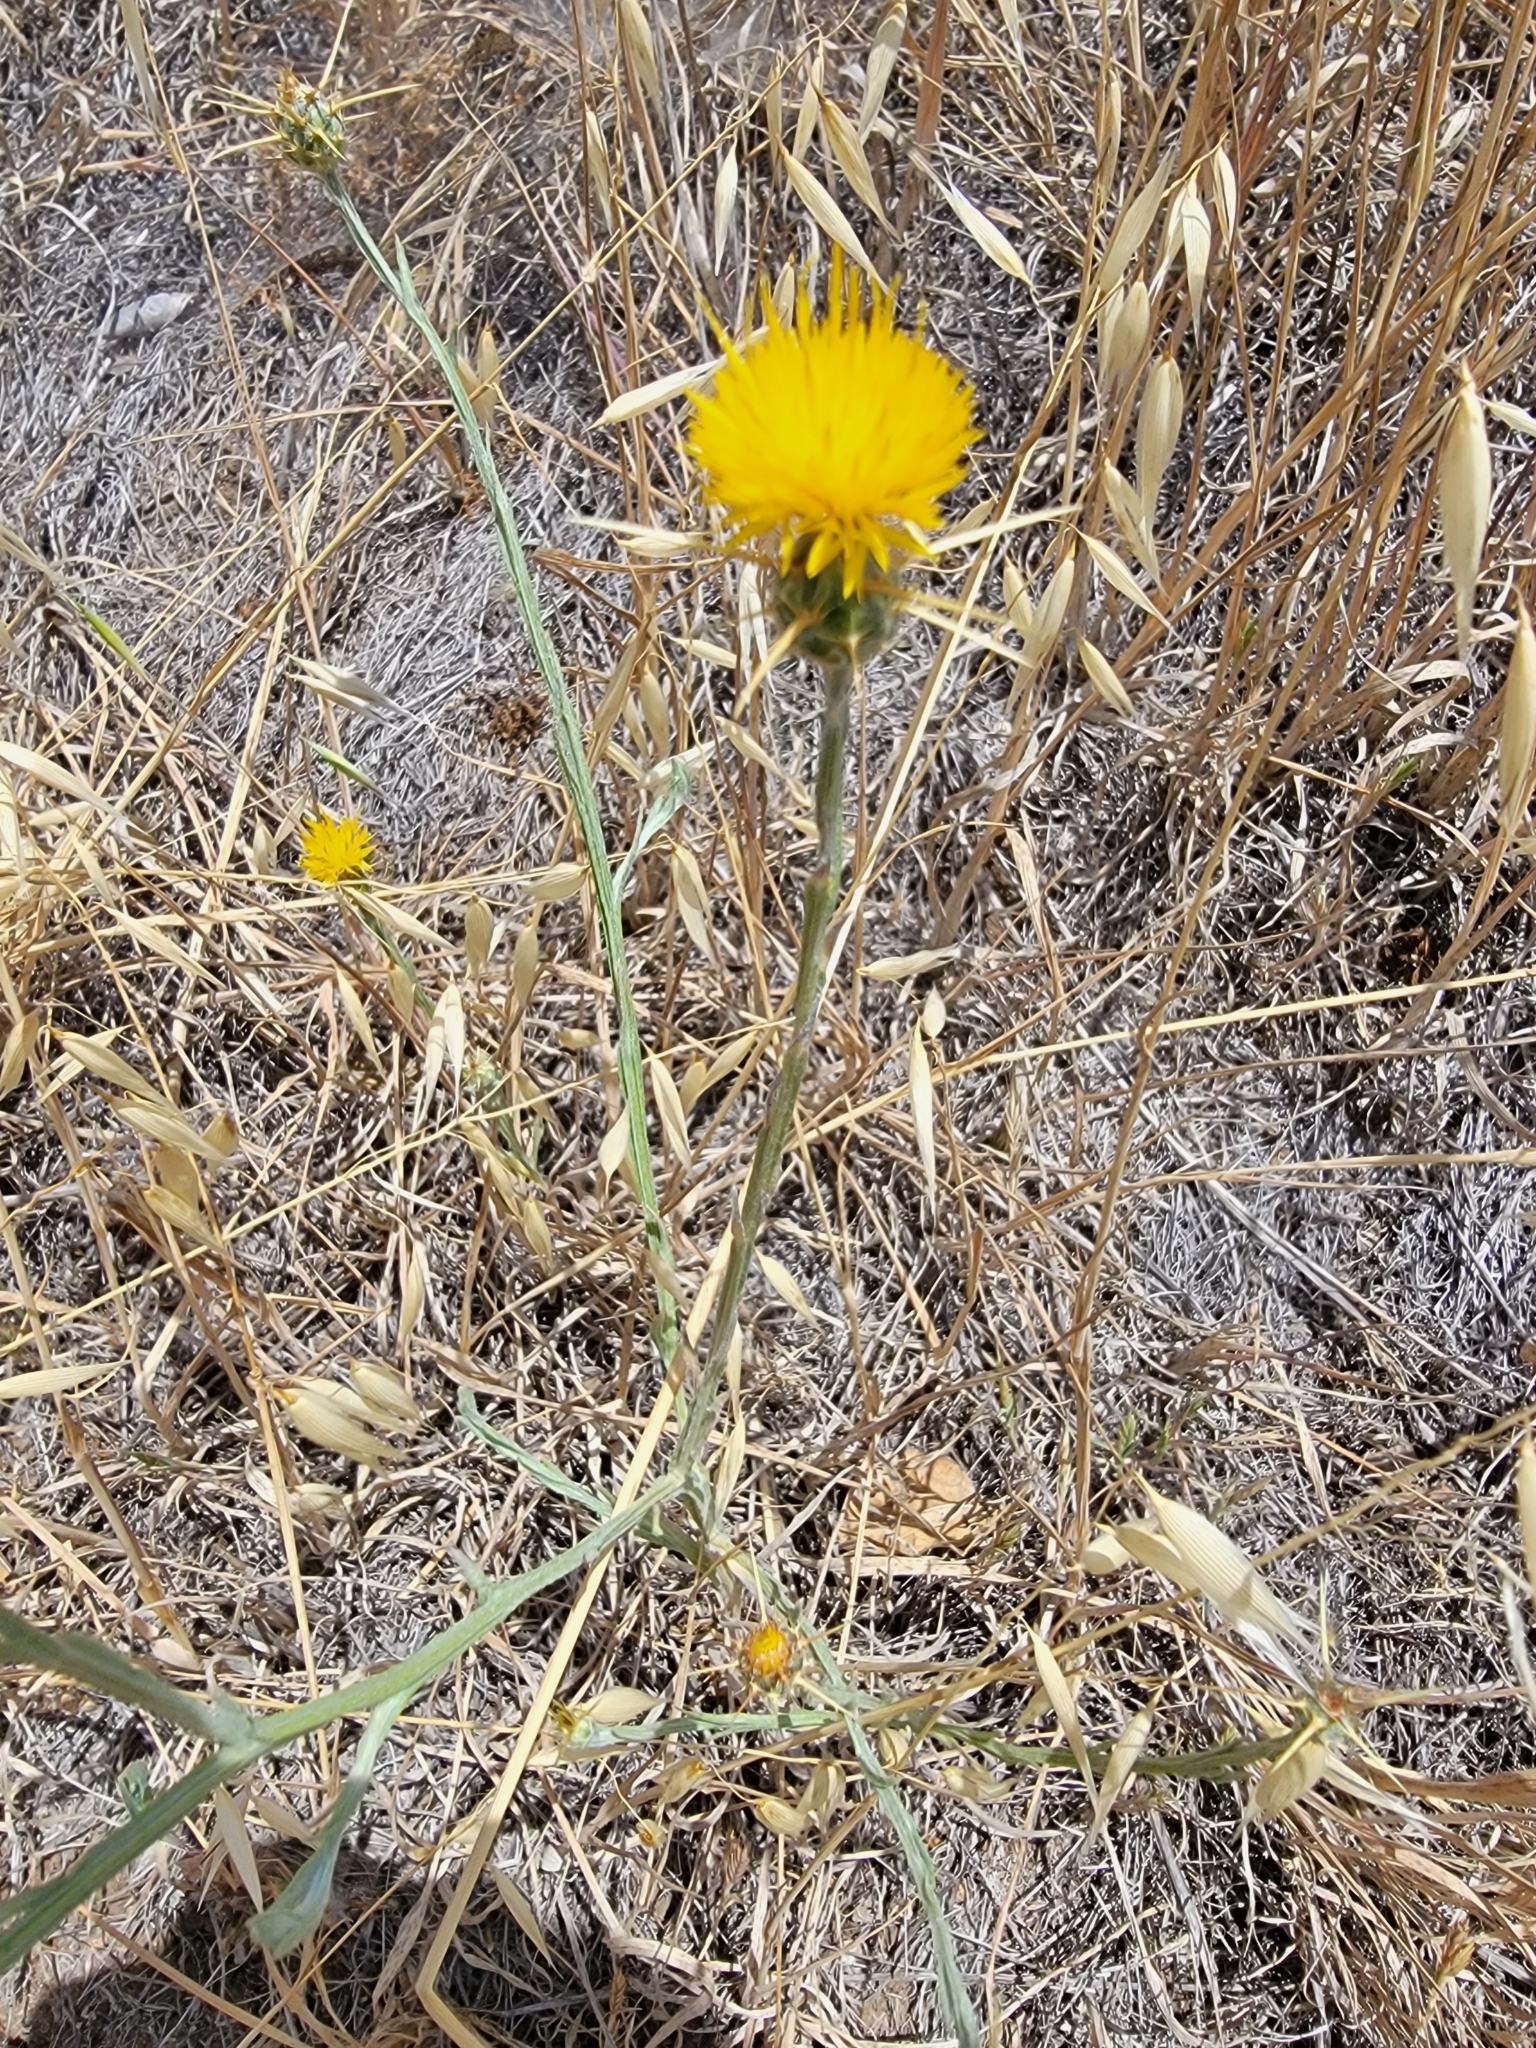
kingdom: Plantae
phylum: Tracheophyta
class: Magnoliopsida
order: Asterales
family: Asteraceae
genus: Centaurea
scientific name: Centaurea solstitialis
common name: Yellow star-thistle
